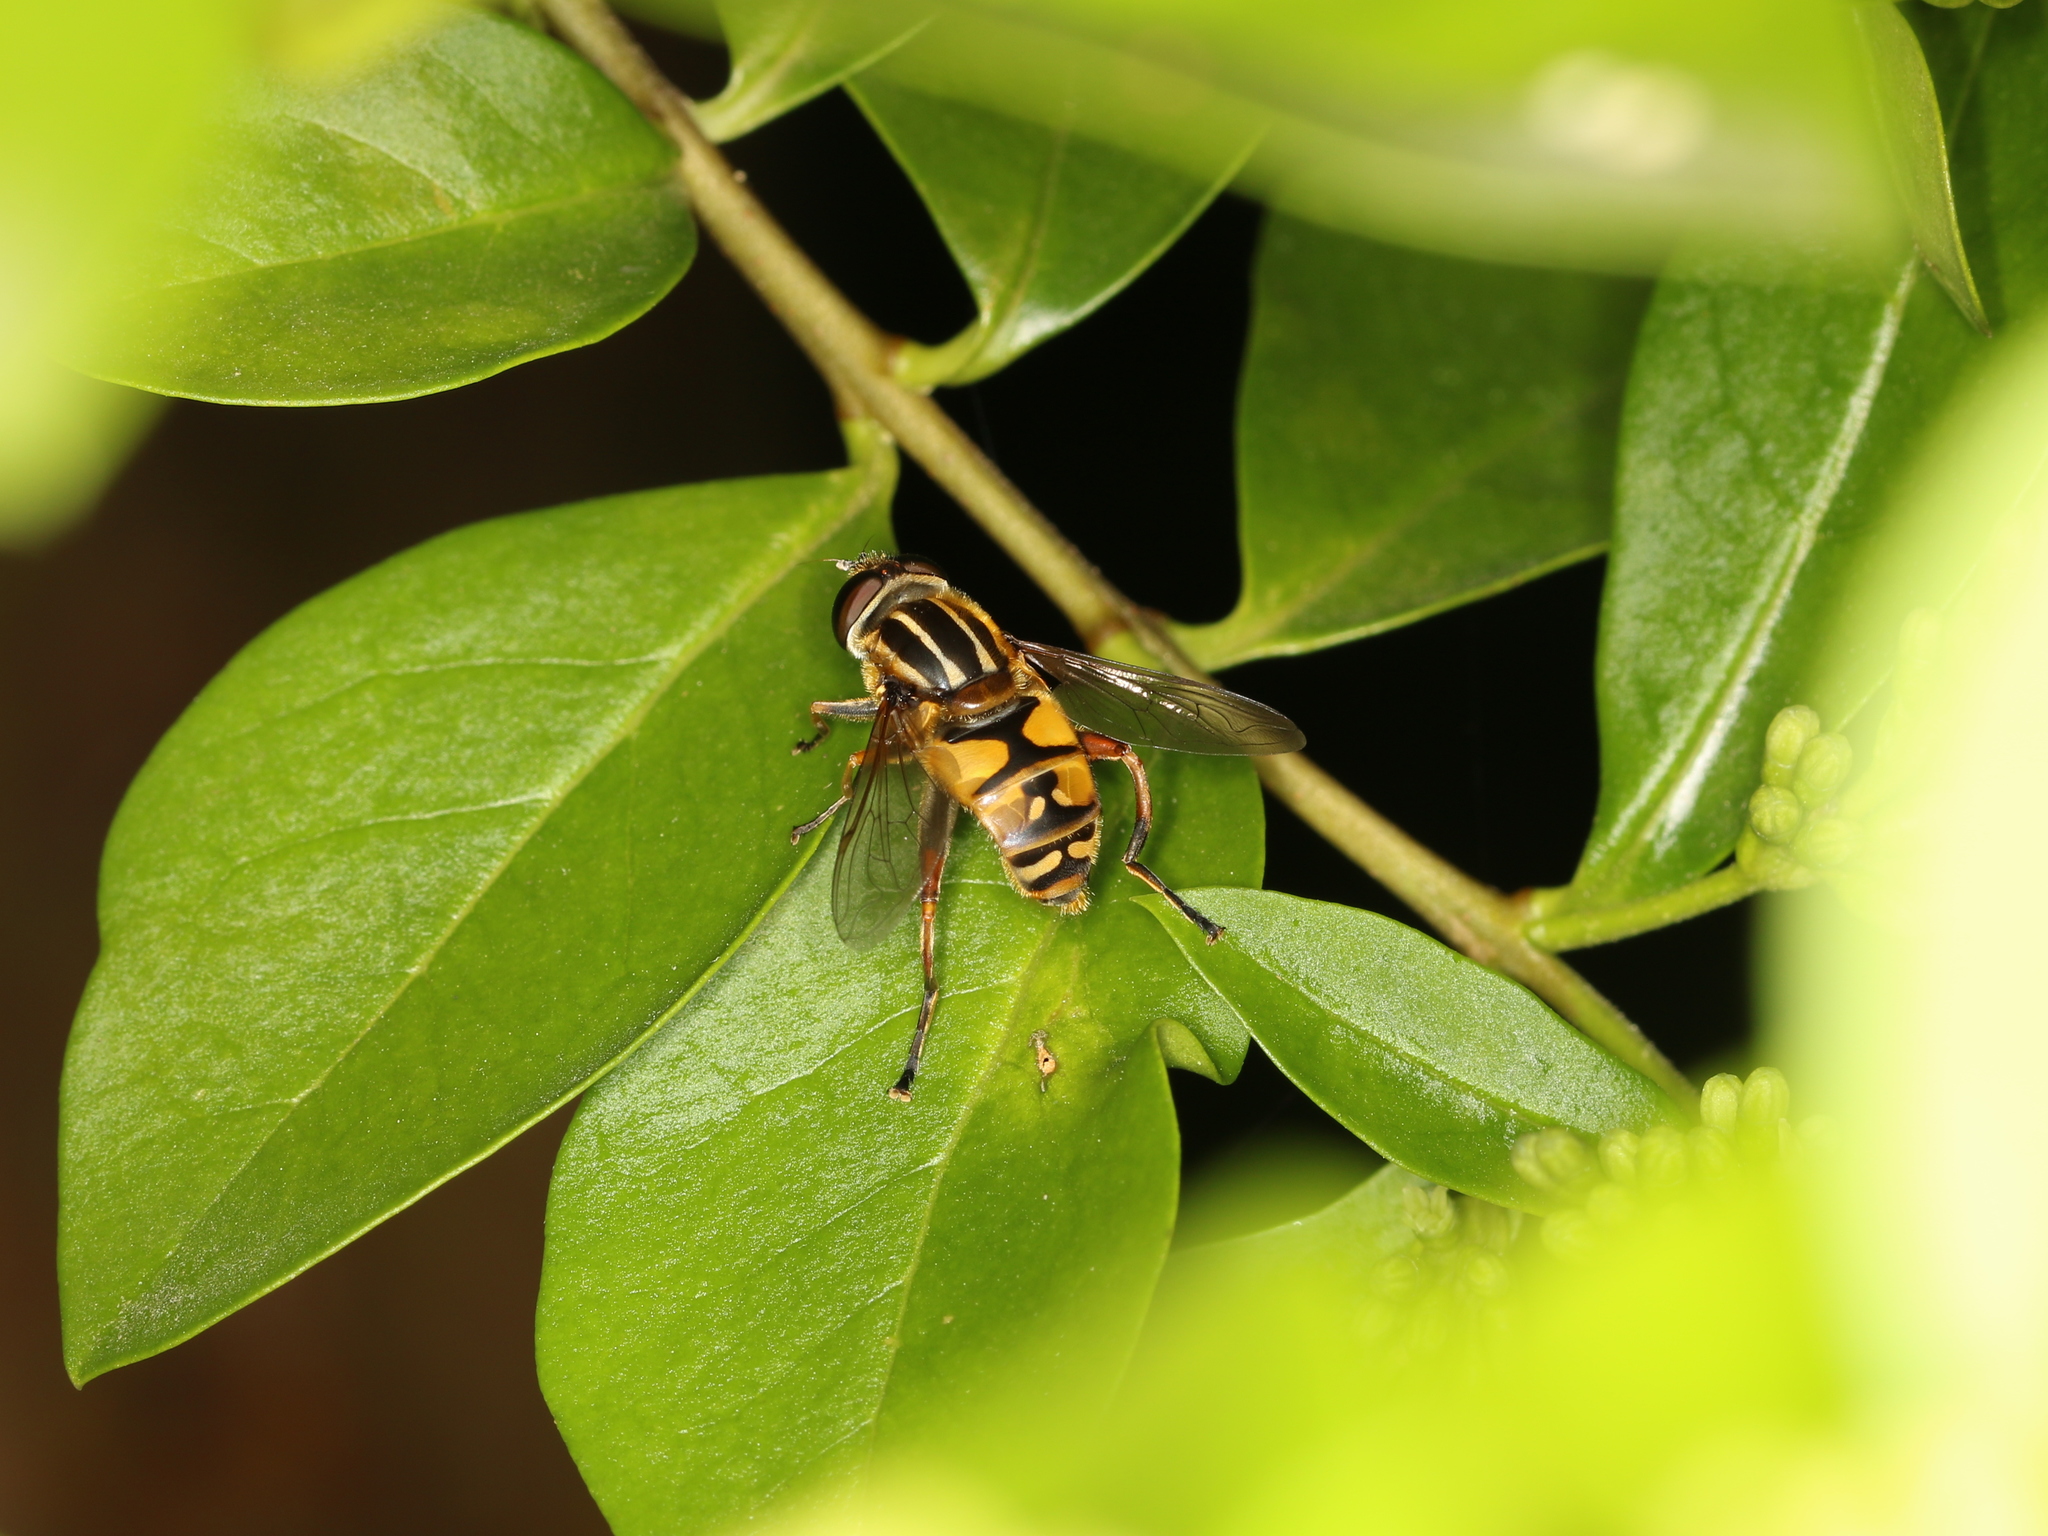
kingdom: Animalia
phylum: Arthropoda
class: Insecta
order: Diptera
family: Syrphidae
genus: Helophilus
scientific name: Helophilus pendulus
